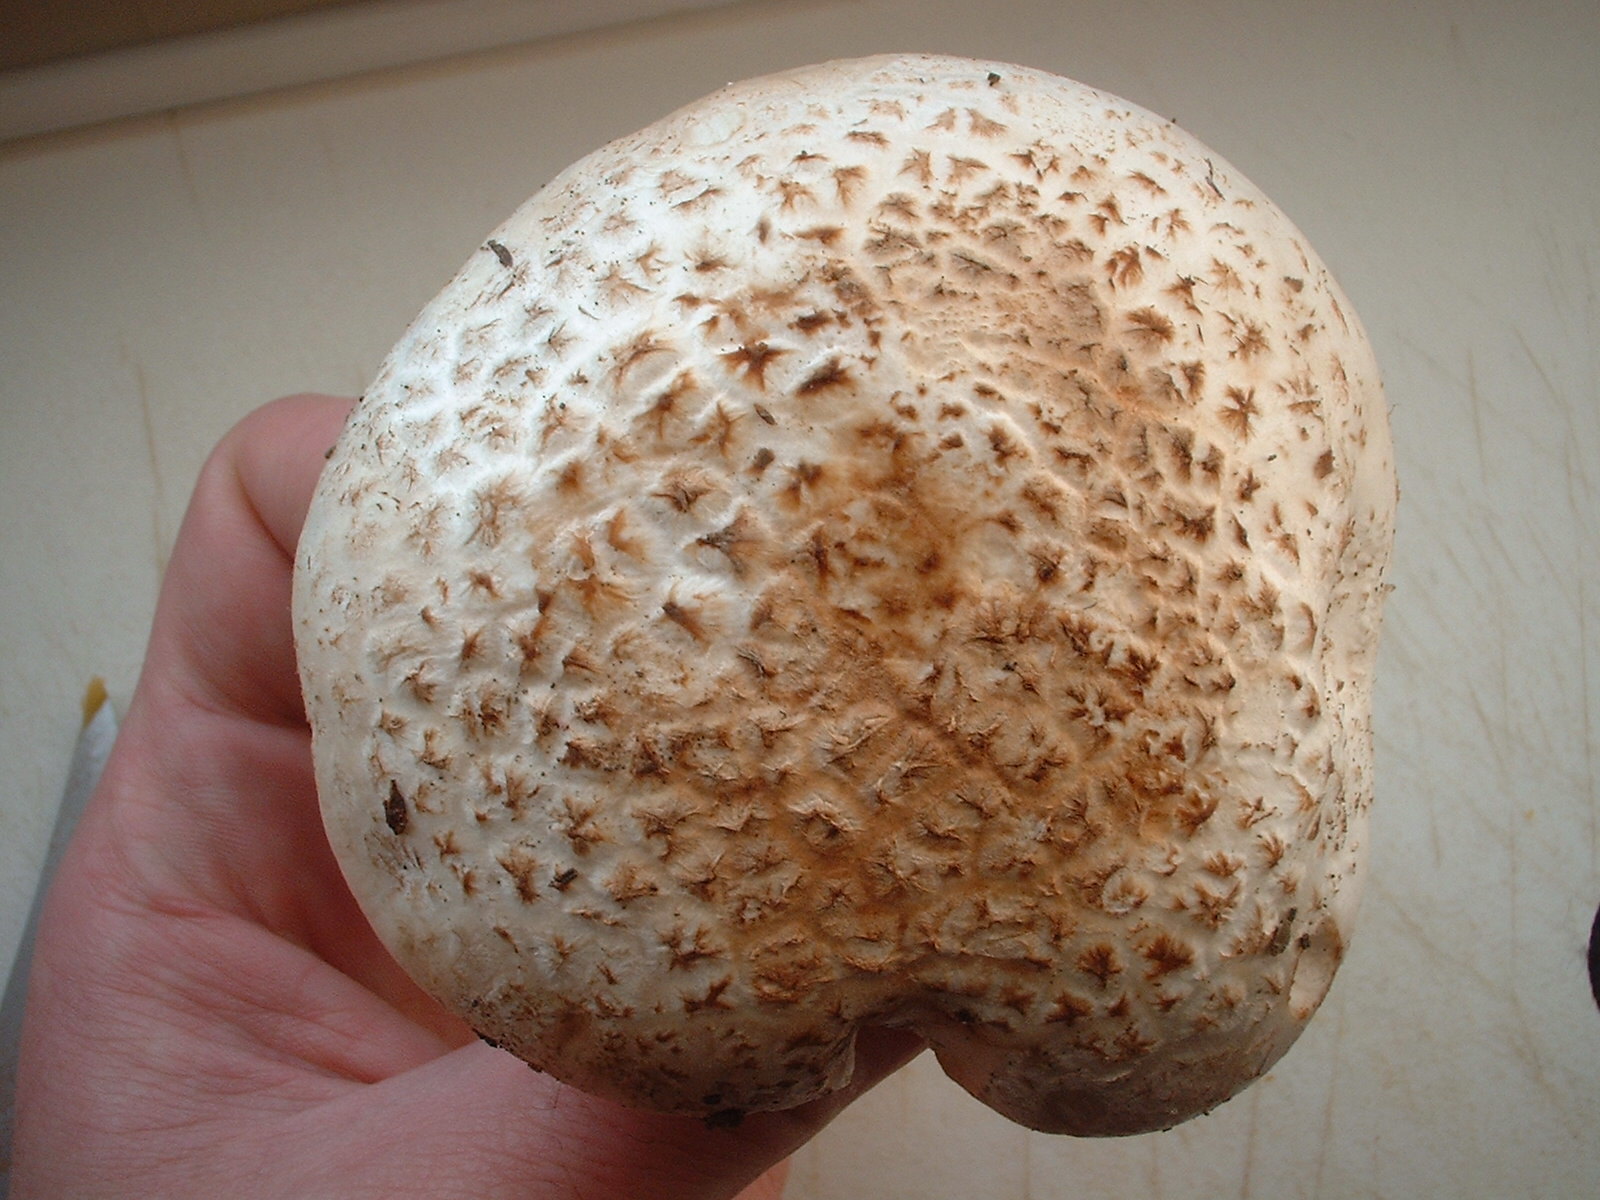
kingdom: Fungi
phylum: Basidiomycota
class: Agaricomycetes
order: Agaricales
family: Amanitaceae
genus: Amanita
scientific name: Amanita novinupta
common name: Blushing bride
